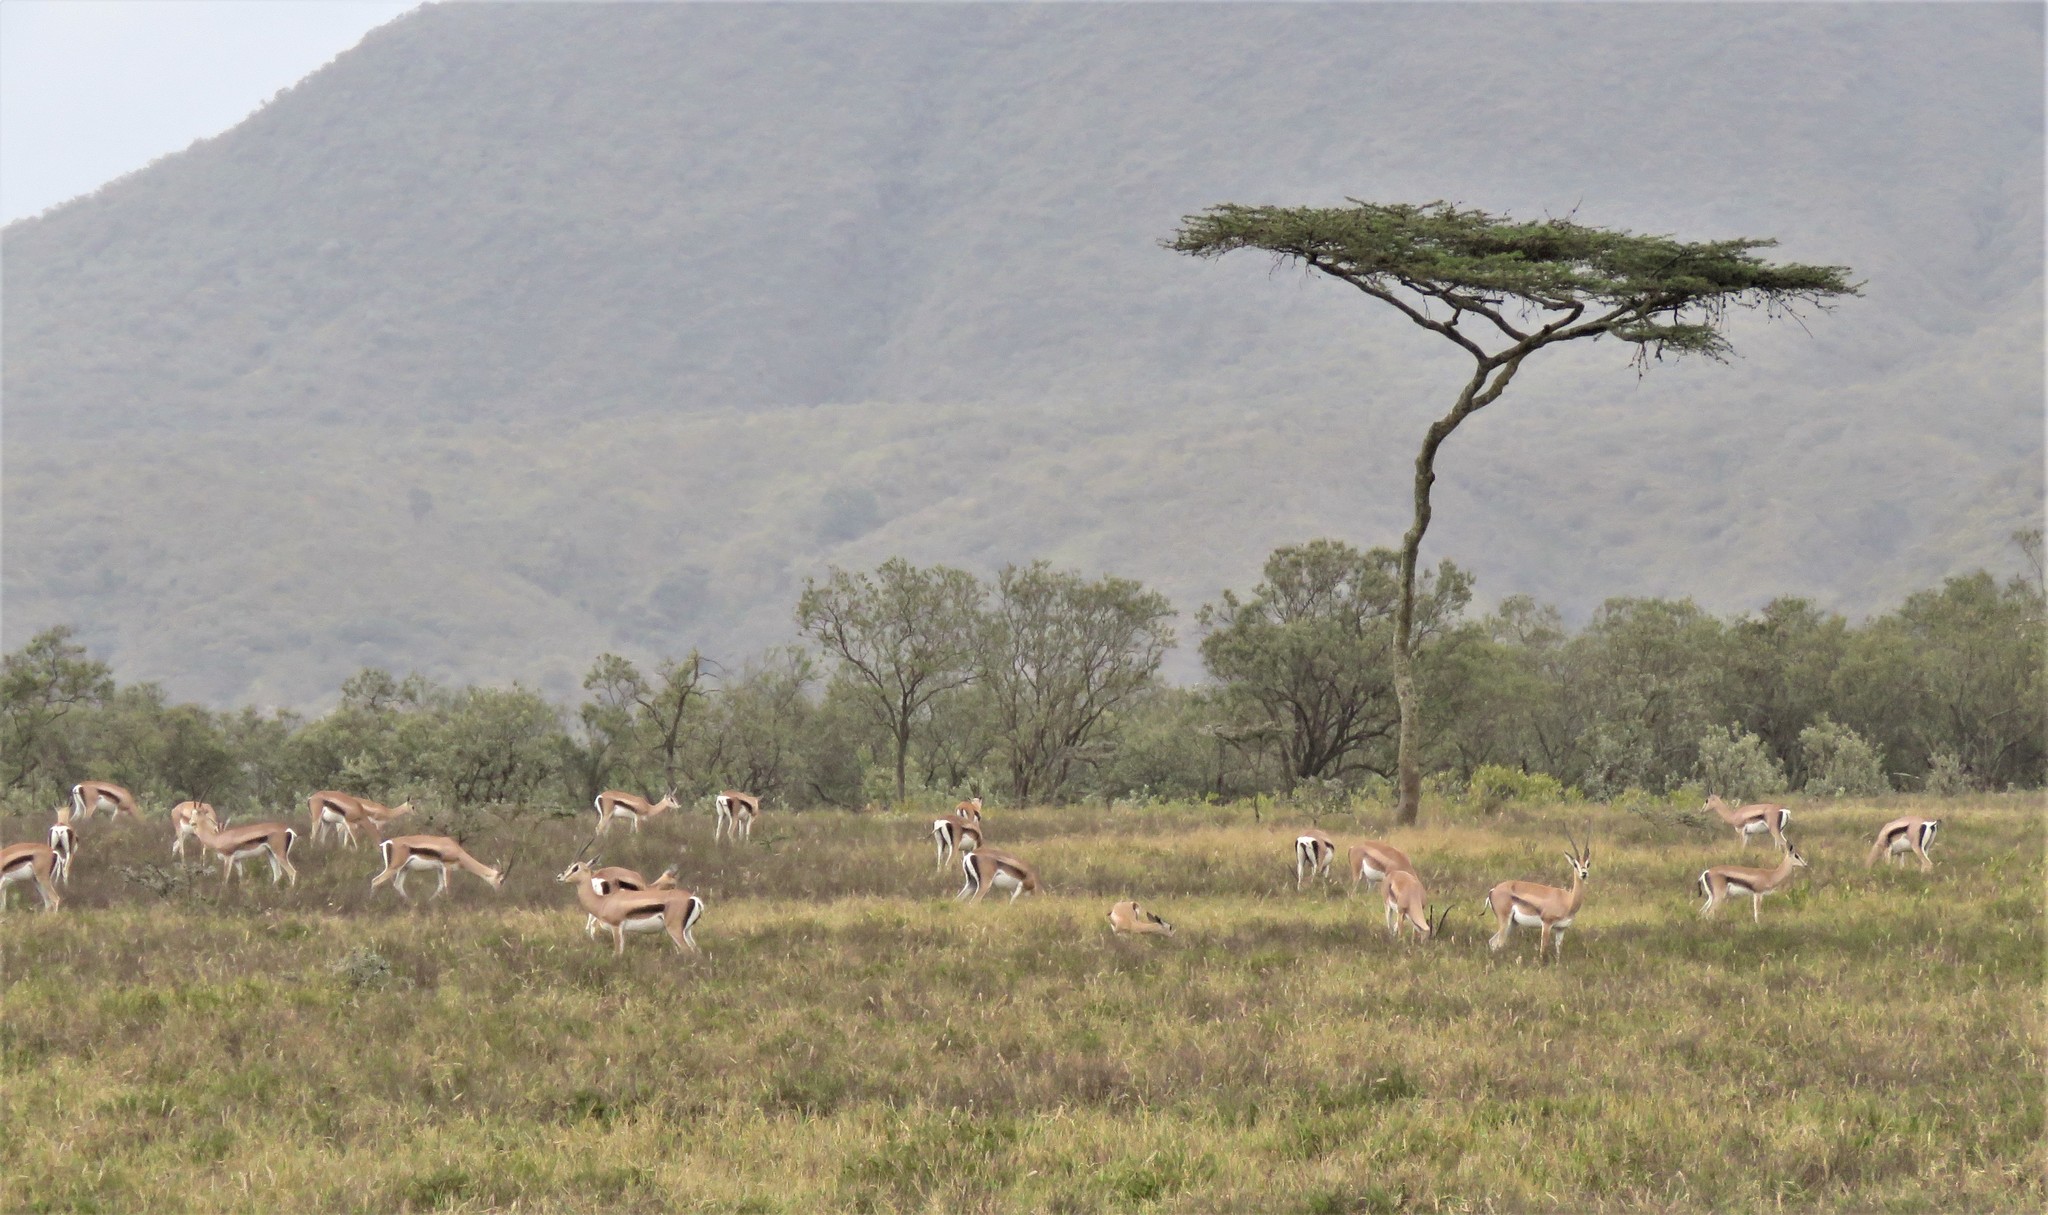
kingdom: Animalia
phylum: Chordata
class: Mammalia
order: Artiodactyla
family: Bovidae
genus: Nanger
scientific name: Nanger granti
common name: Grant's gazelle
